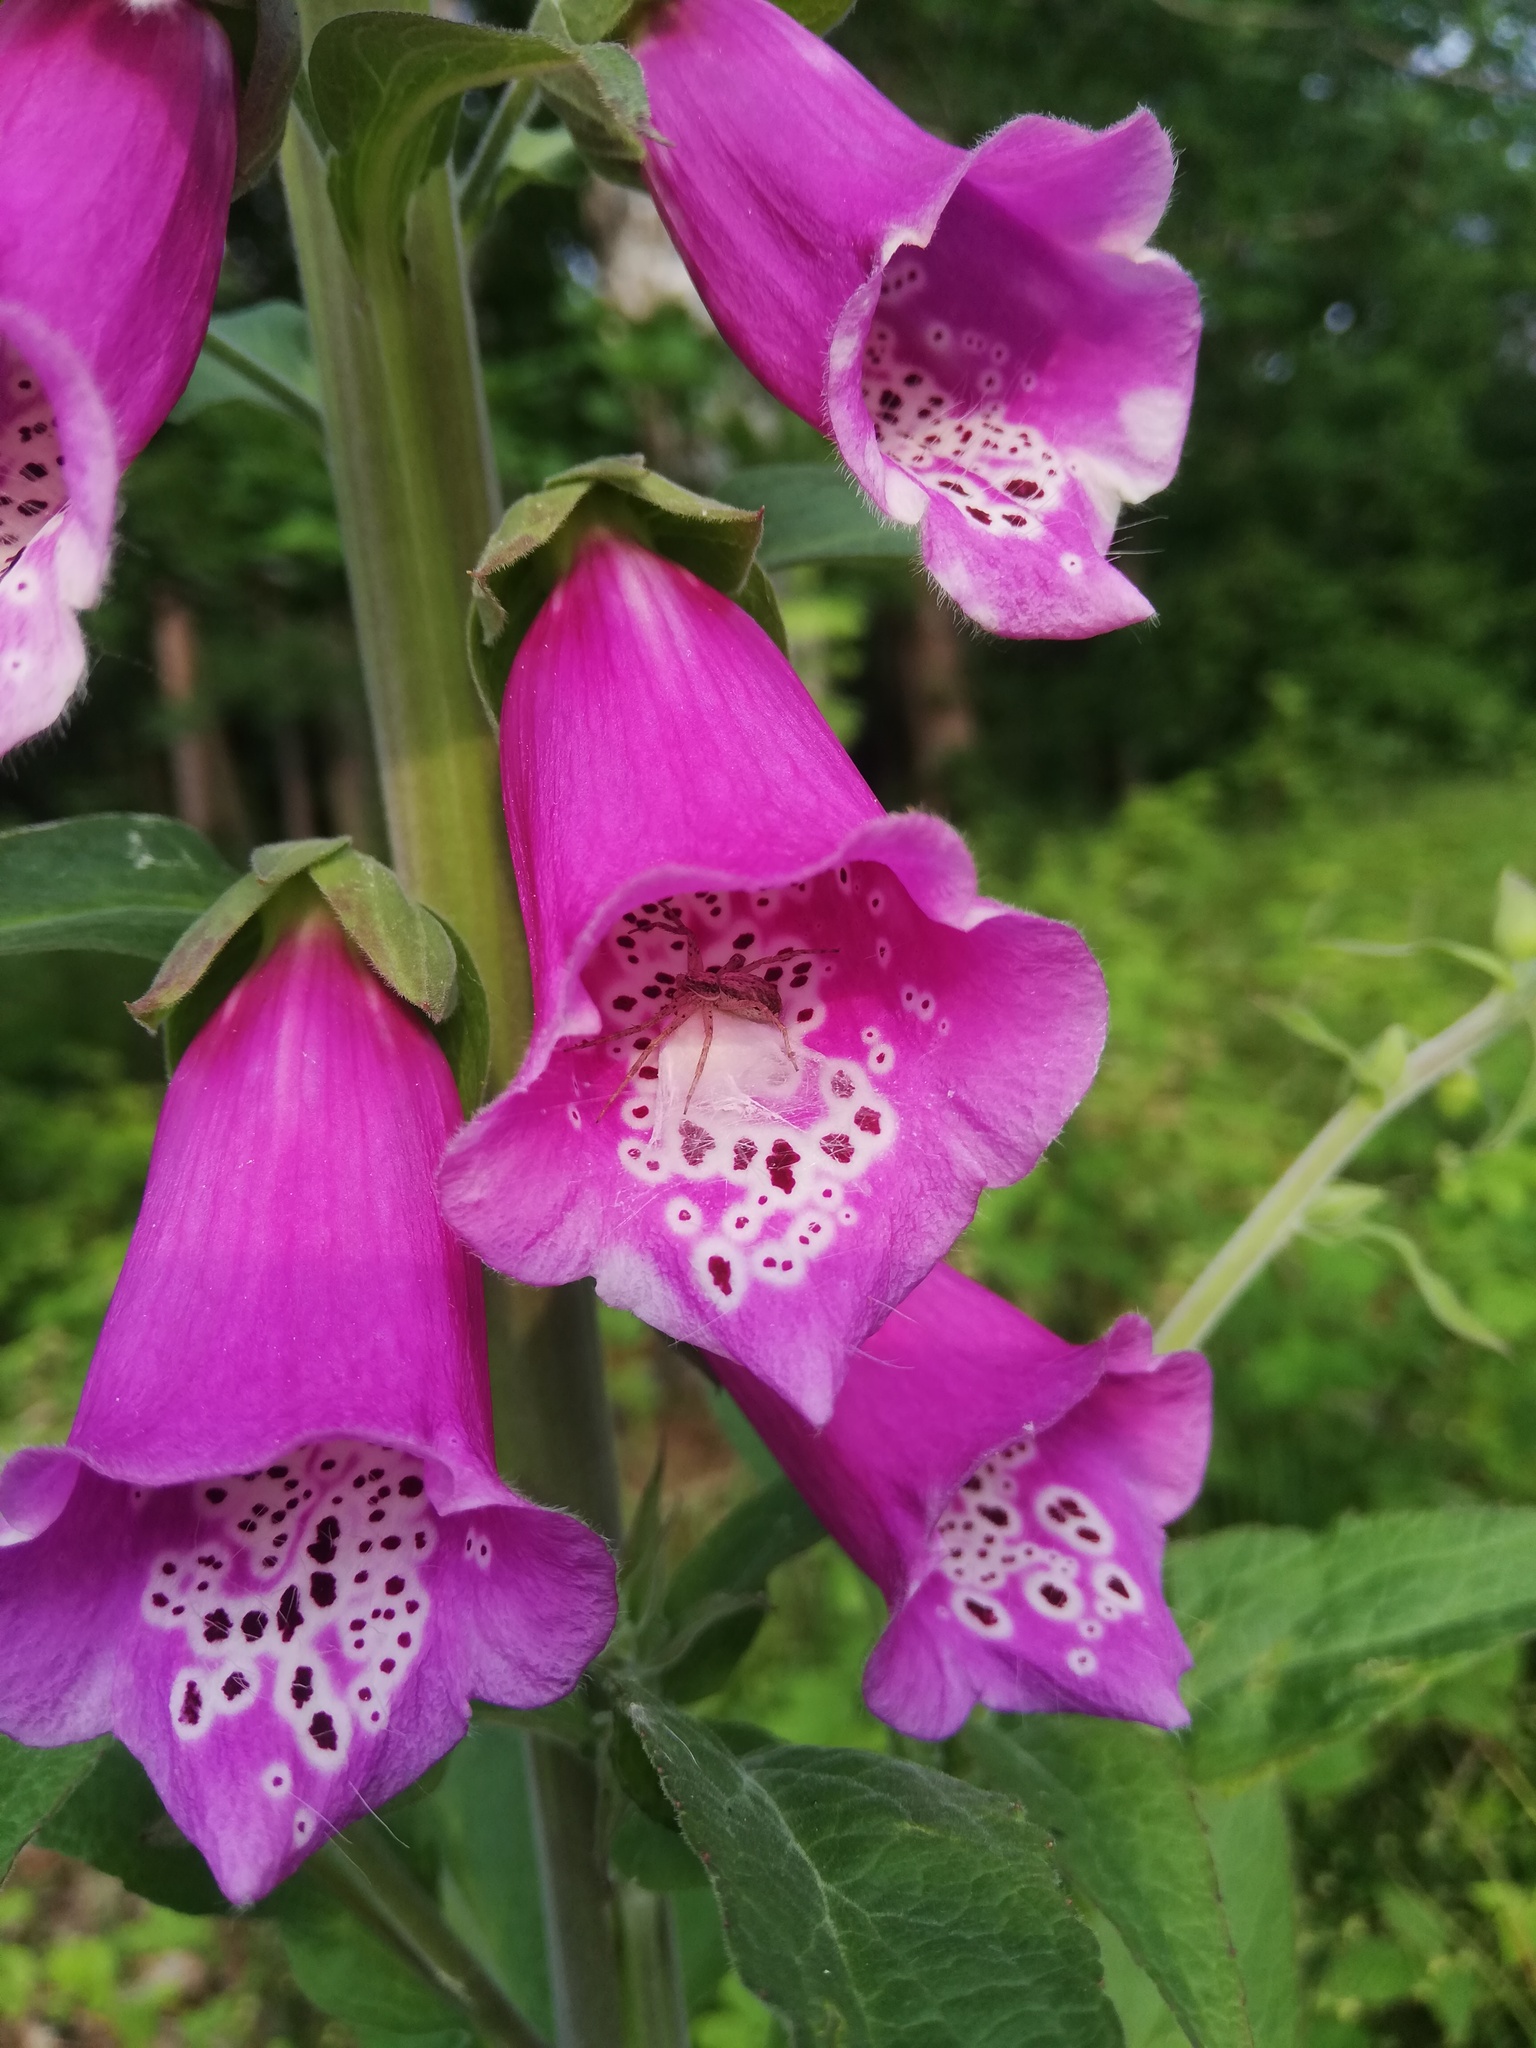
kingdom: Animalia
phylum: Arthropoda
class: Arachnida
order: Araneae
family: Philodromidae
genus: Philodromus
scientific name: Philodromus dispar
